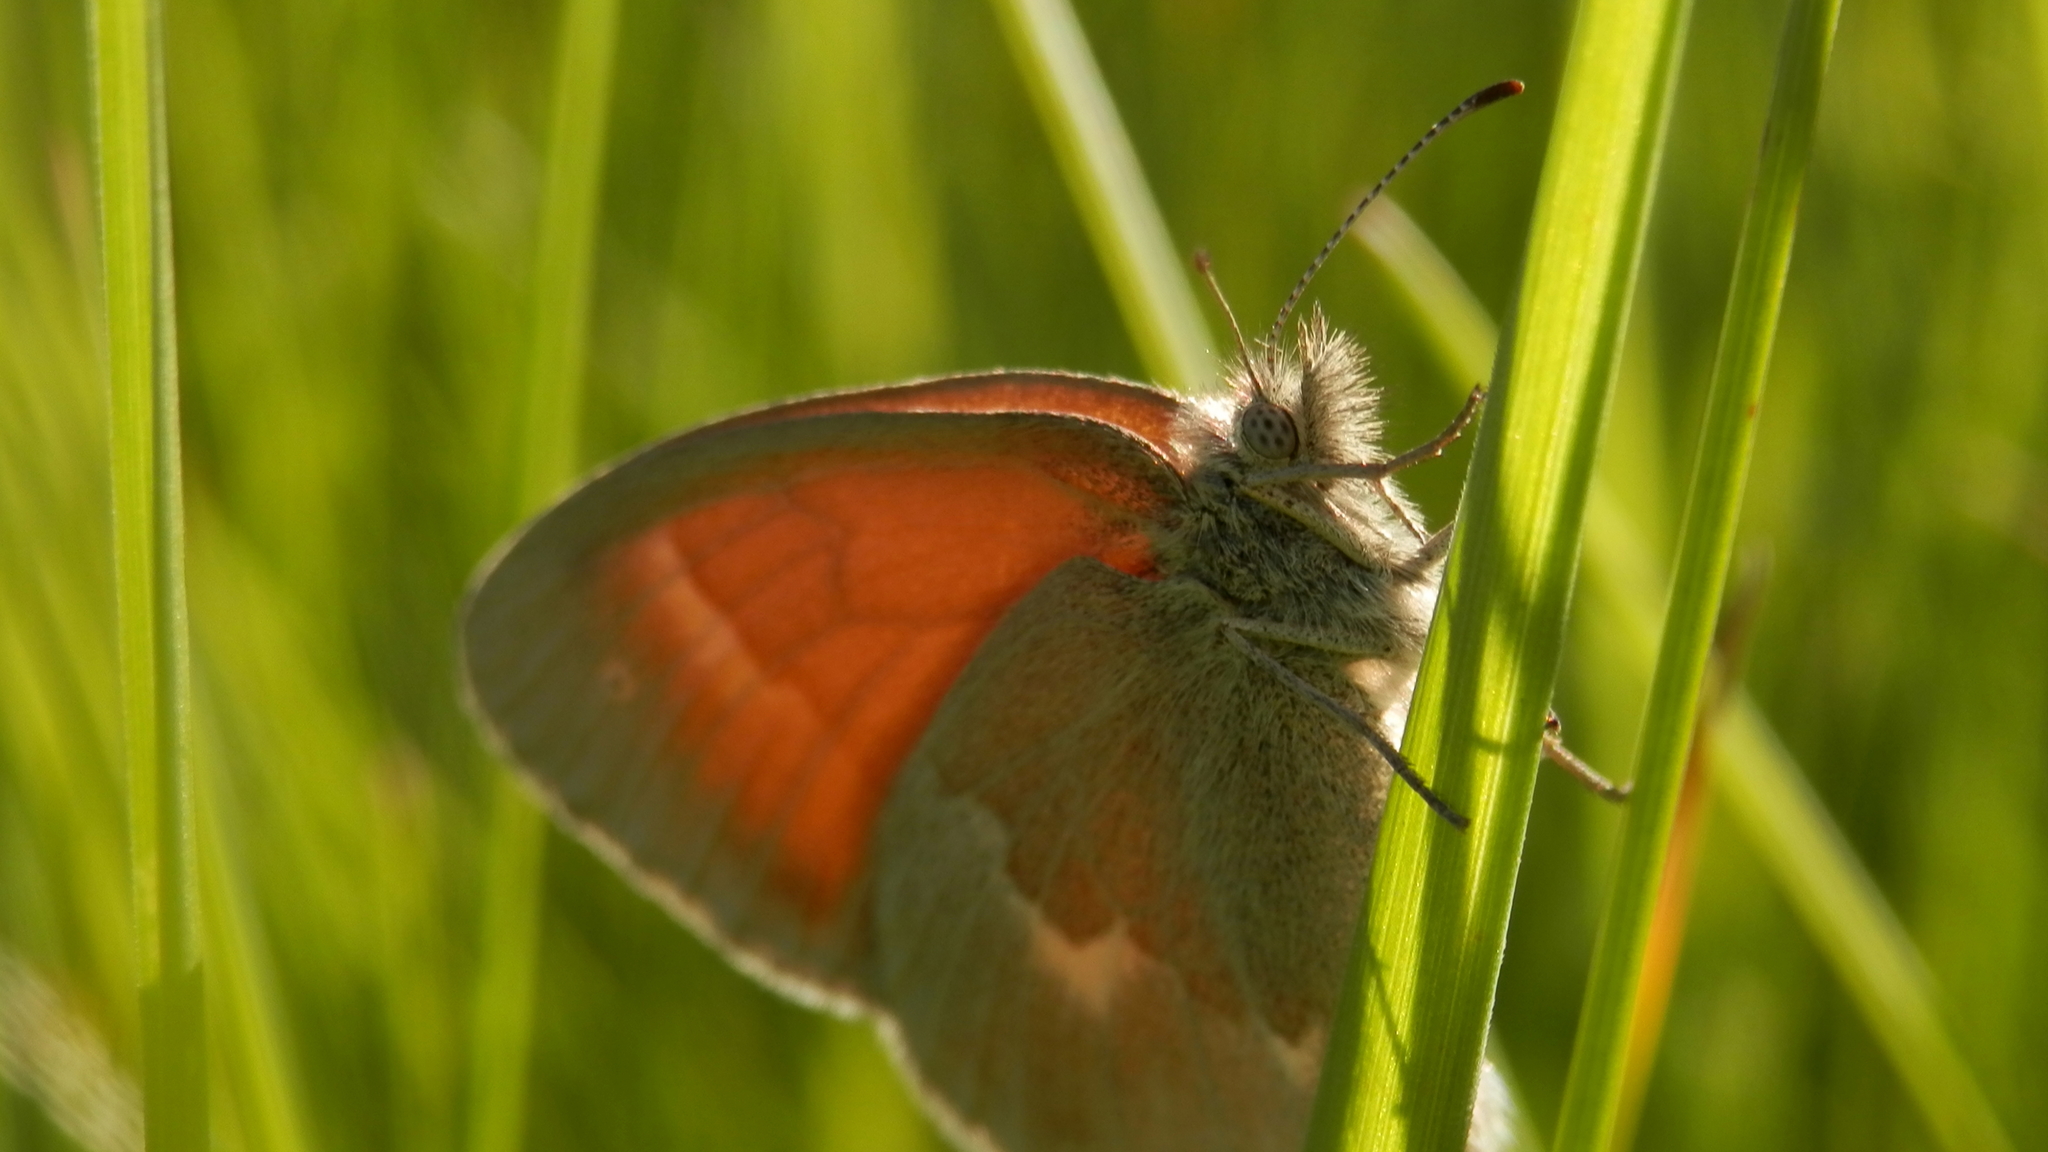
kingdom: Animalia
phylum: Arthropoda
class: Insecta
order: Lepidoptera
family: Nymphalidae
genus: Coenonympha
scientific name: Coenonympha california
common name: Common ringlet
